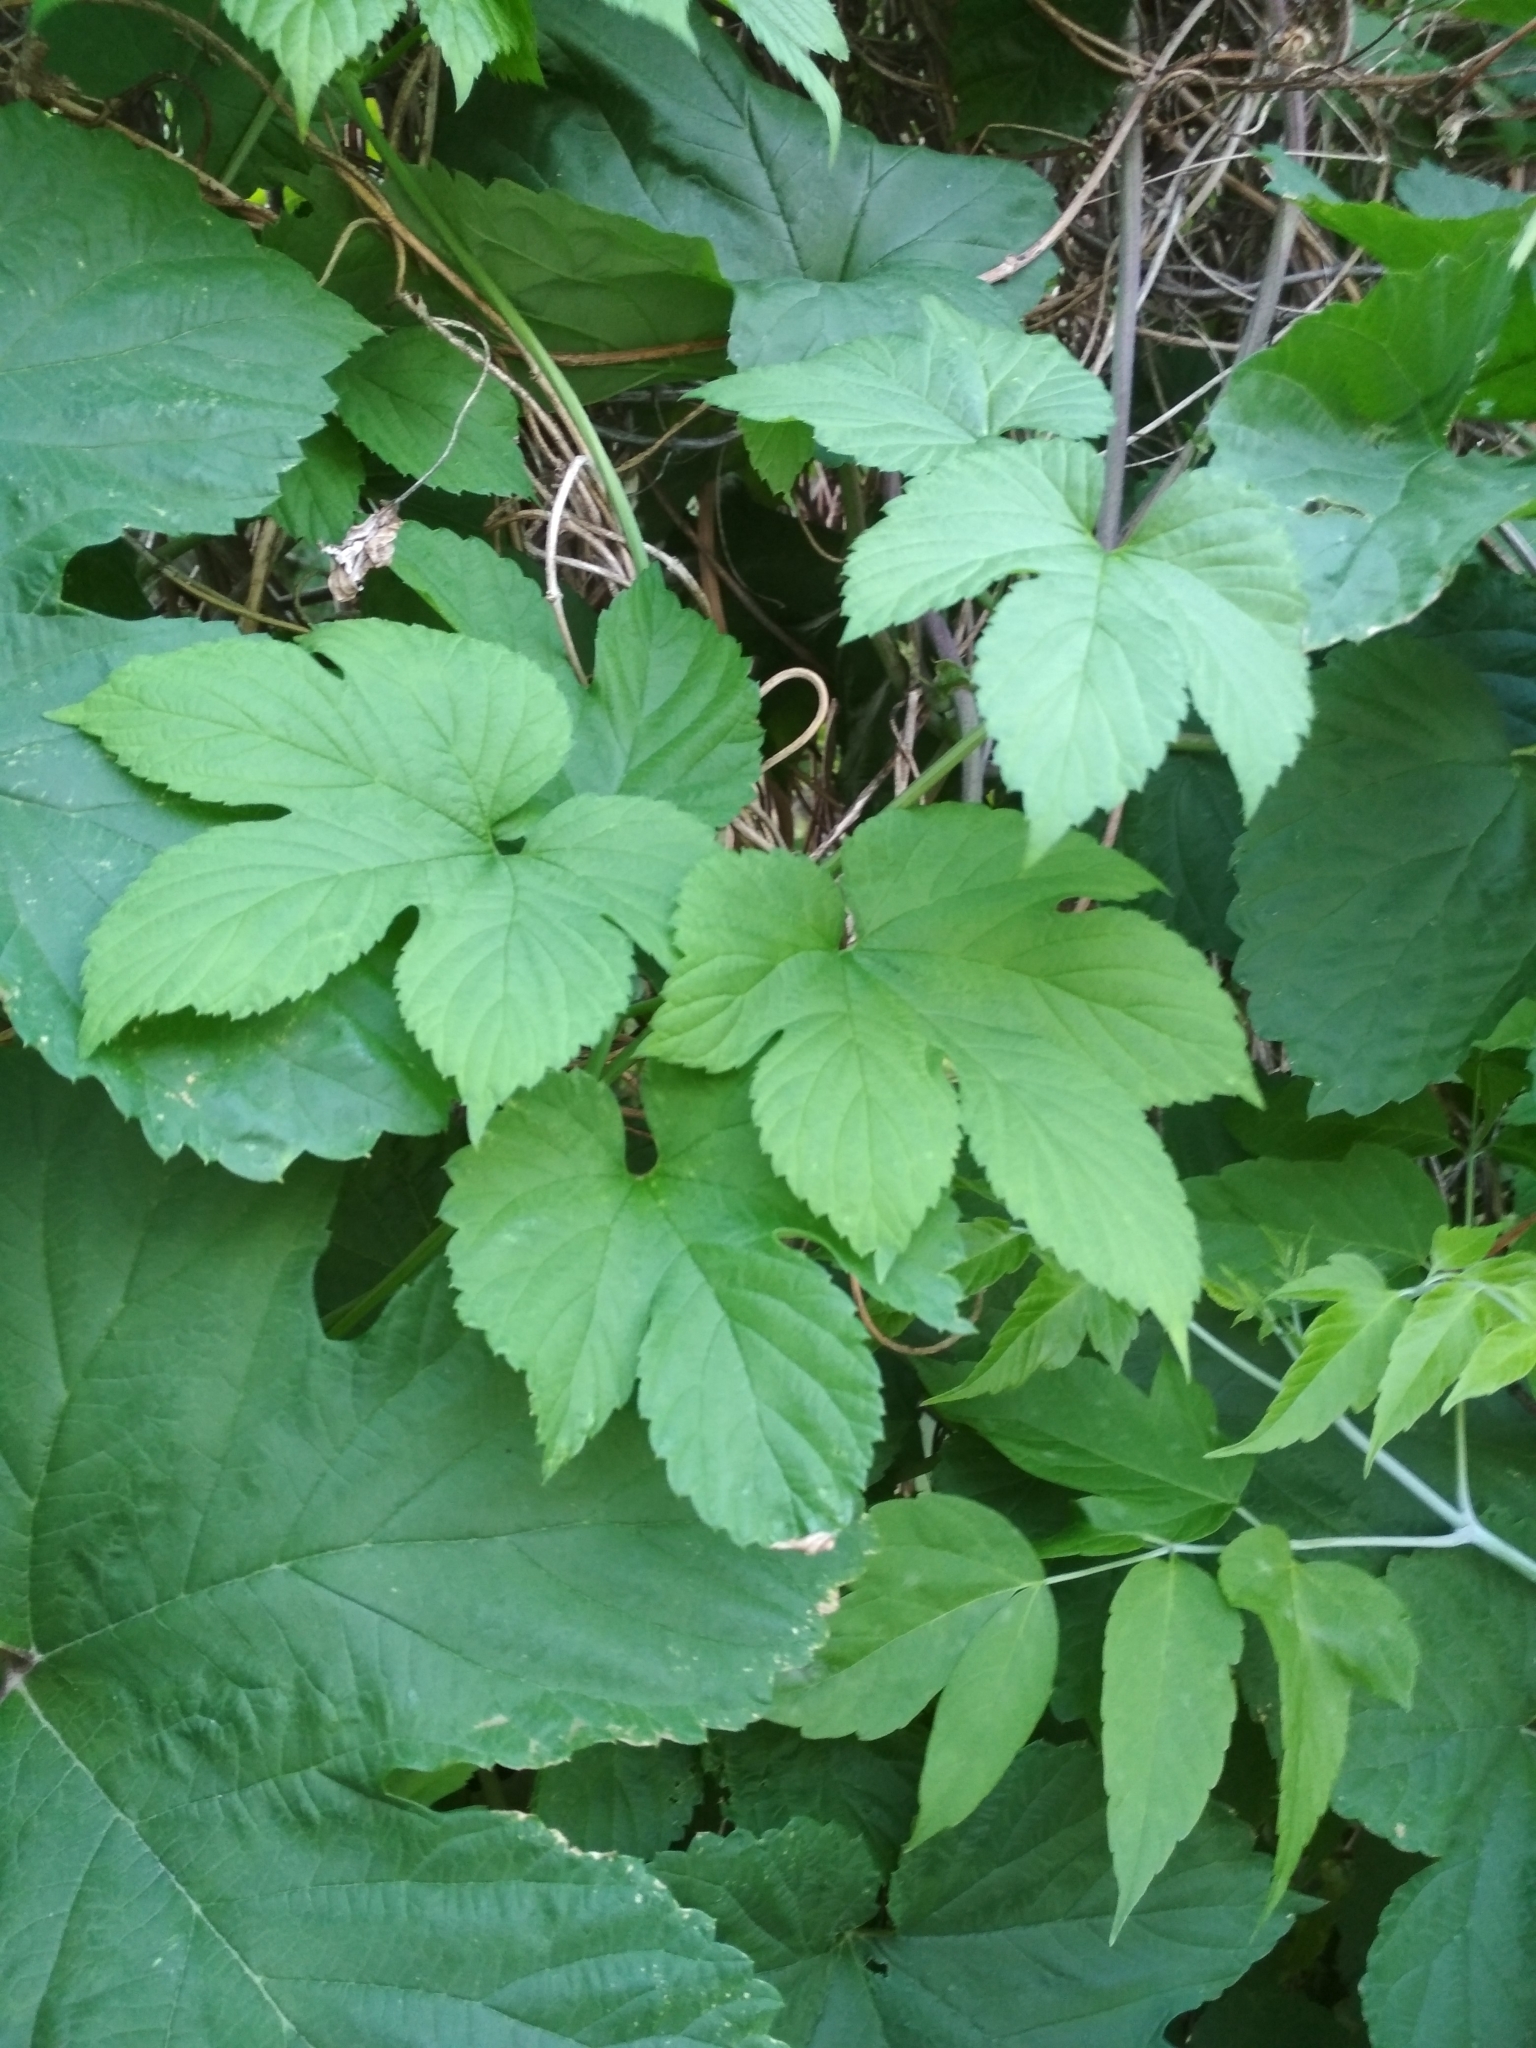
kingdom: Plantae
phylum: Tracheophyta
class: Magnoliopsida
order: Rosales
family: Cannabaceae
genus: Humulus
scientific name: Humulus lupulus
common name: Hop
